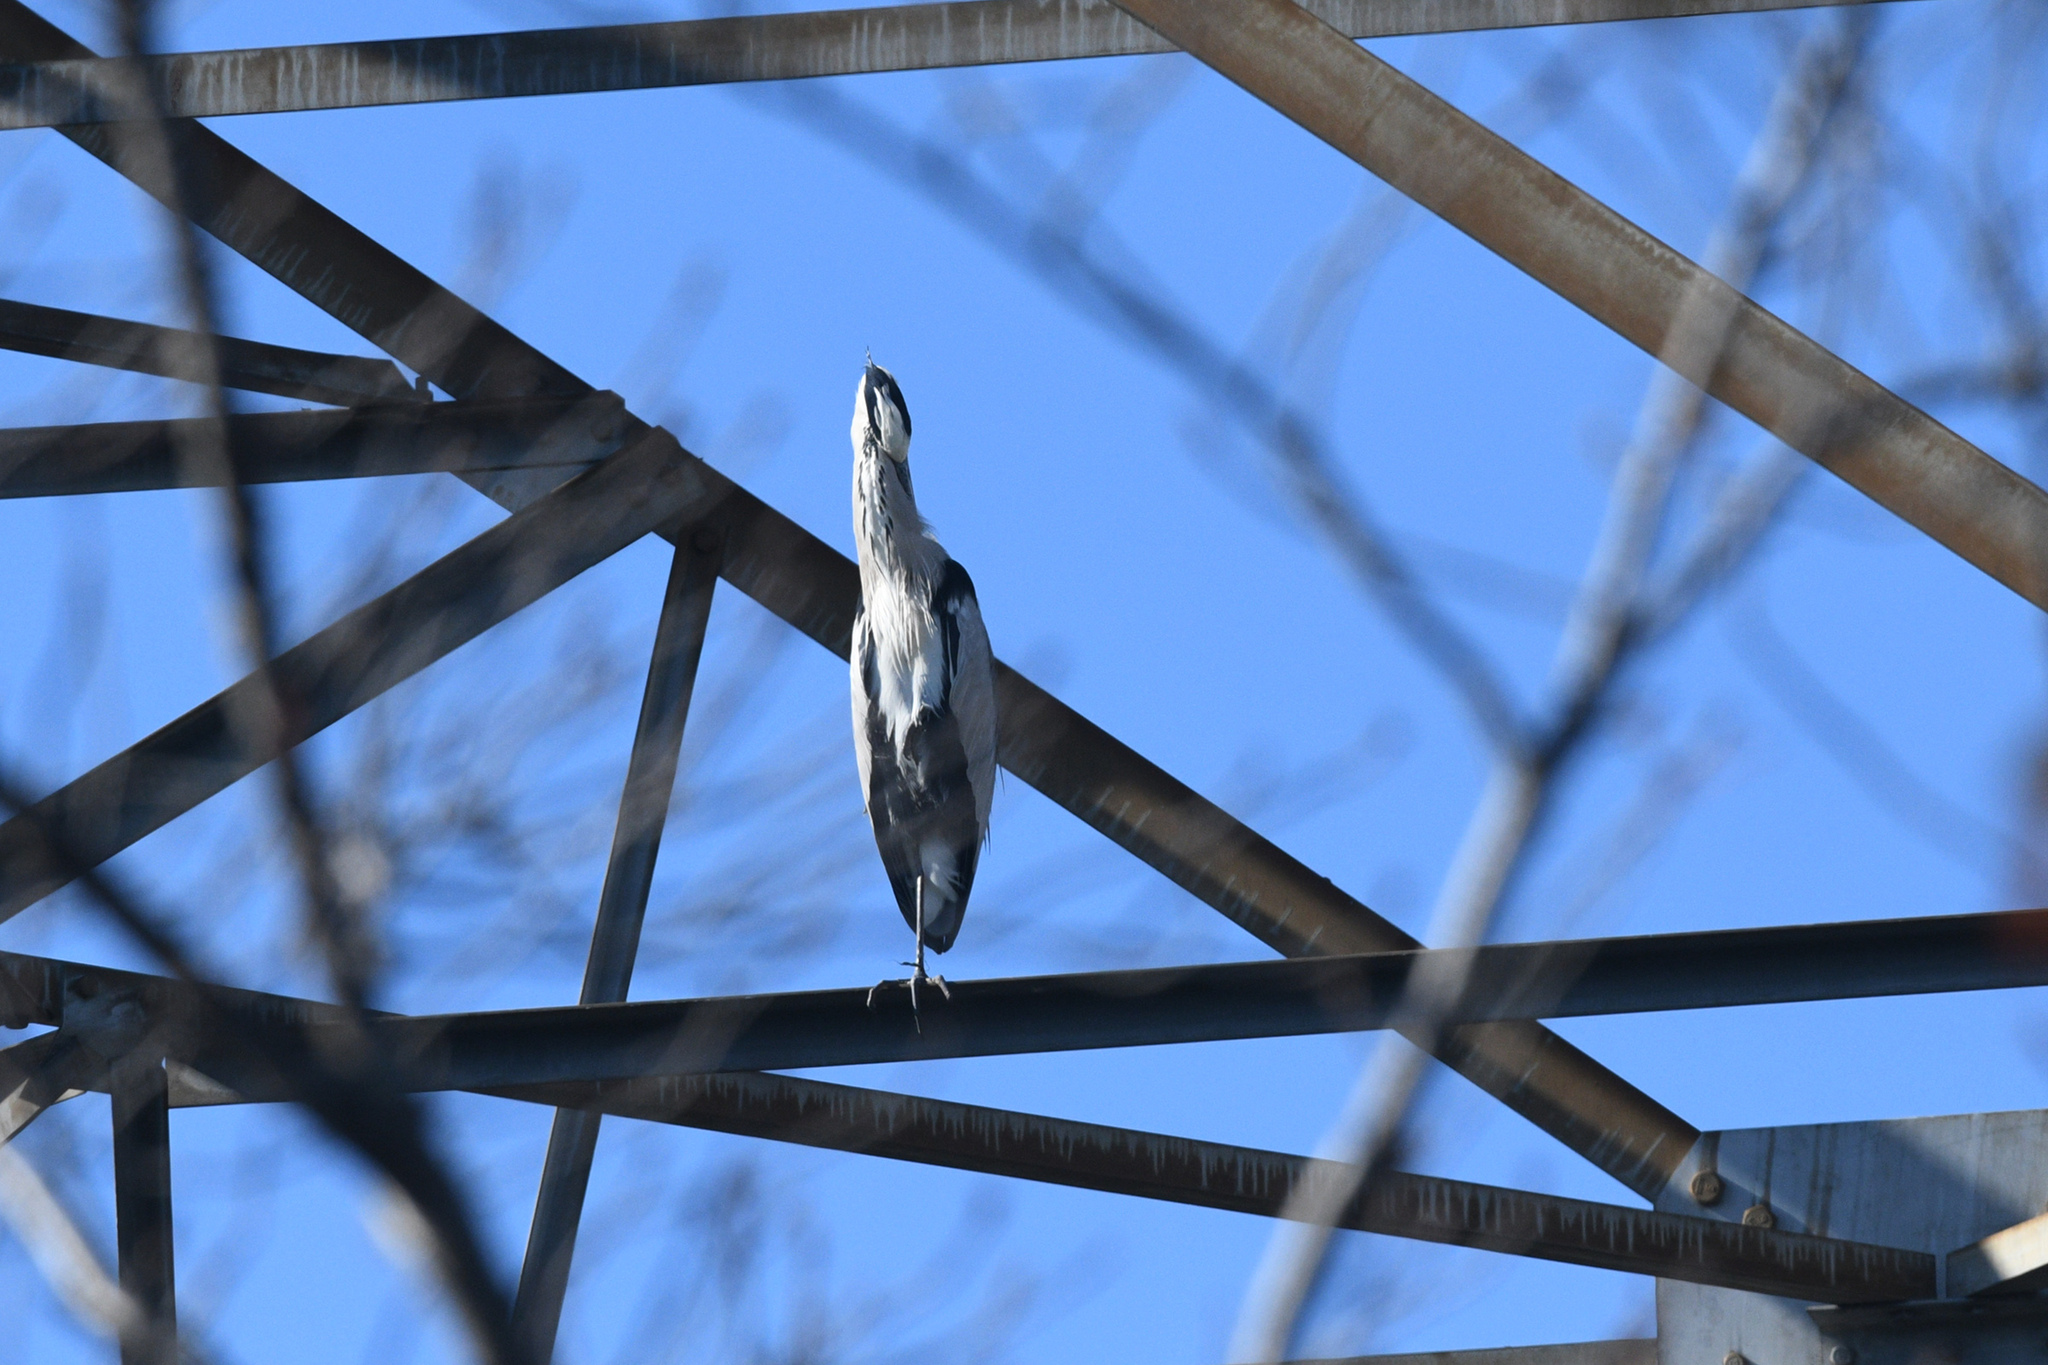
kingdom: Animalia
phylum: Chordata
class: Aves
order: Pelecaniformes
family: Ardeidae
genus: Ardea
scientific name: Ardea cinerea
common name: Grey heron
